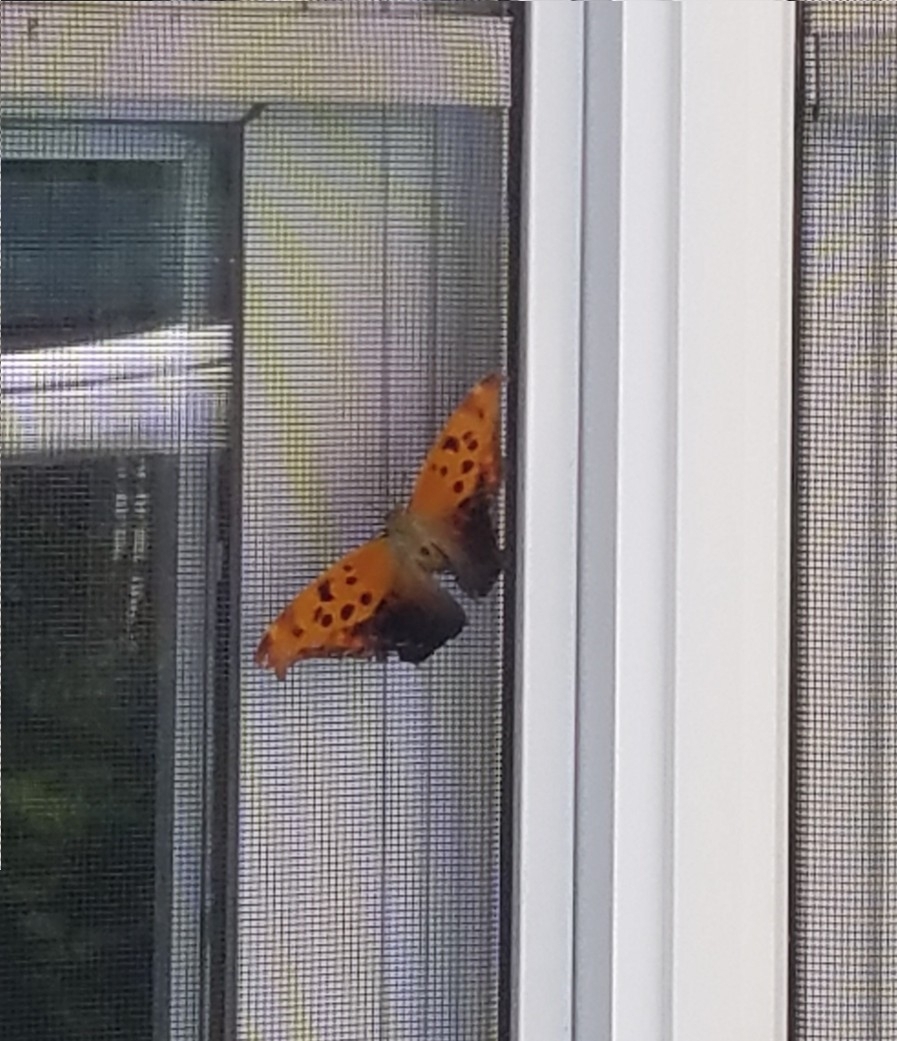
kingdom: Animalia
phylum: Arthropoda
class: Insecta
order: Lepidoptera
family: Nymphalidae
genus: Polygonia
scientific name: Polygonia interrogationis
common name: Question mark
